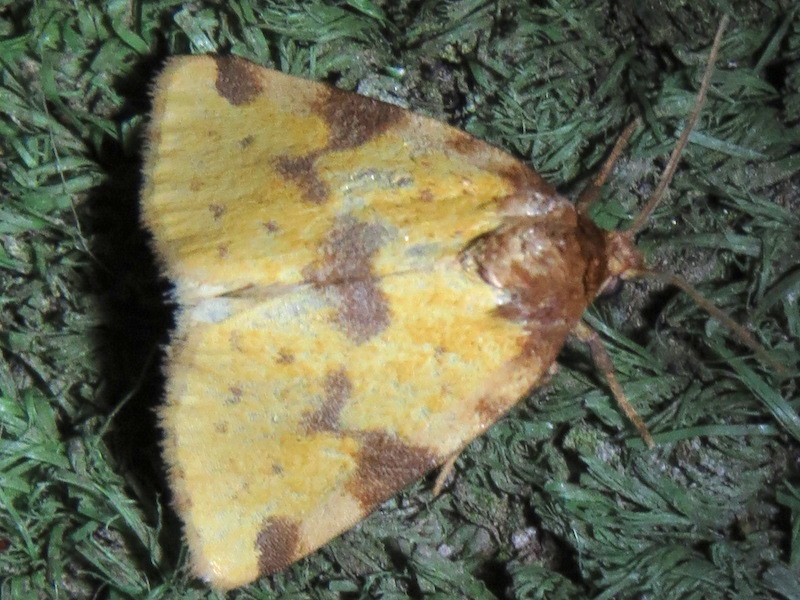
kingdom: Animalia
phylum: Arthropoda
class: Insecta
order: Lepidoptera
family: Noctuidae
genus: Azenia
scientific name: Azenia obtusa
